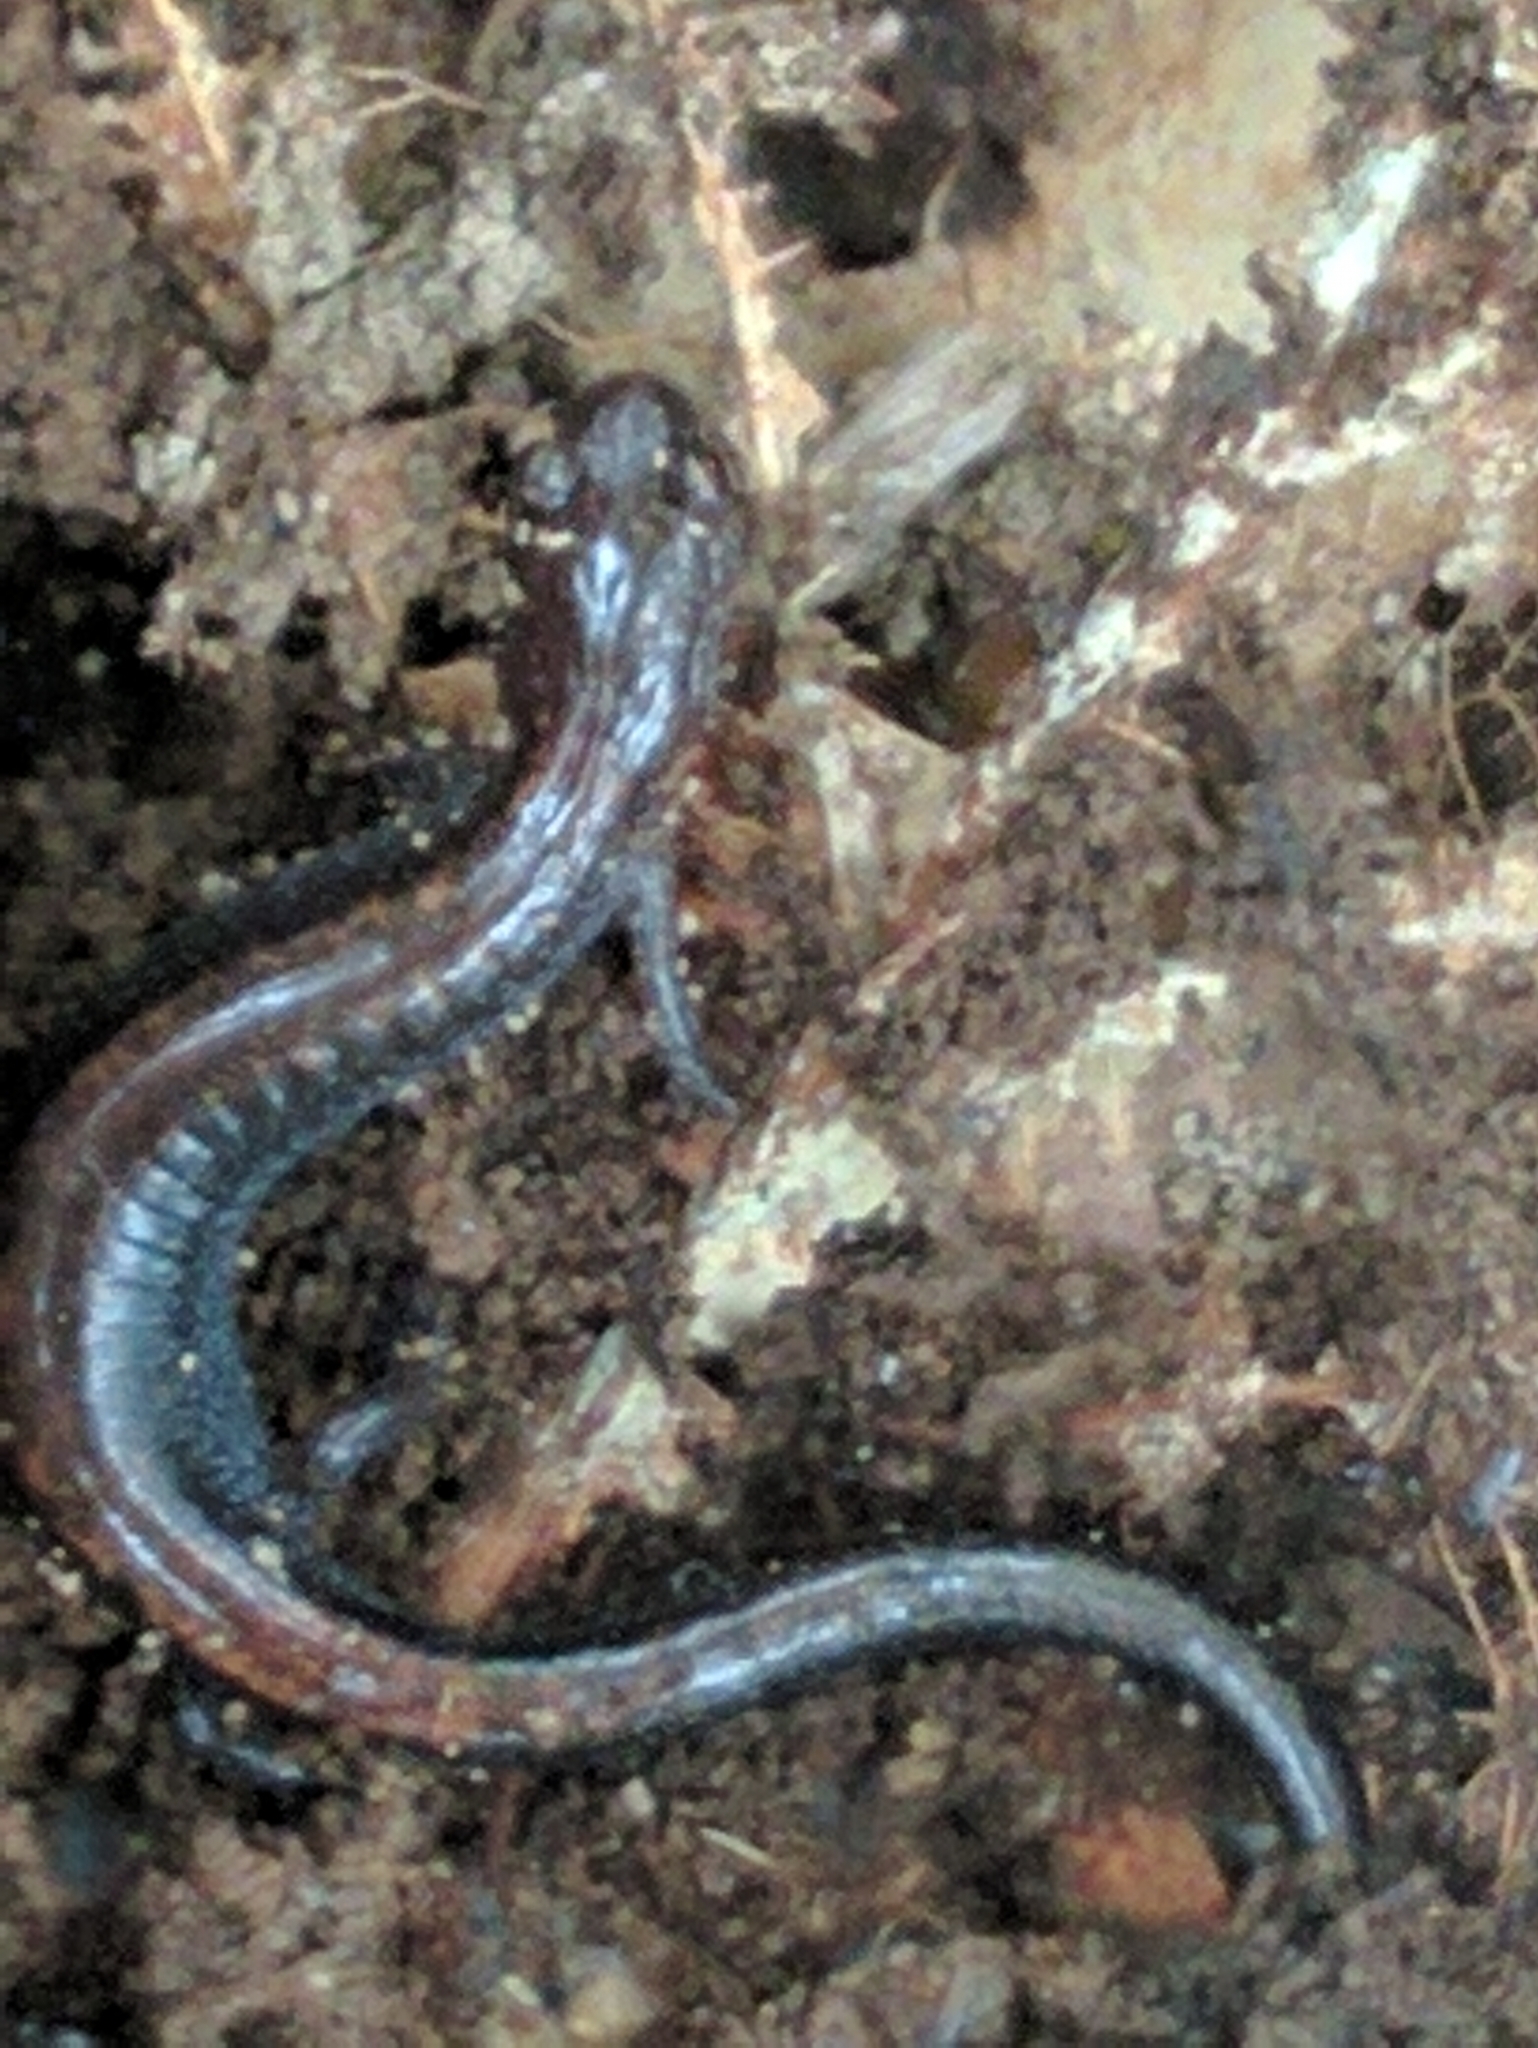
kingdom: Animalia
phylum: Chordata
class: Amphibia
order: Caudata
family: Plethodontidae
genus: Plethodon
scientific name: Plethodon cinereus
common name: Redback salamander
